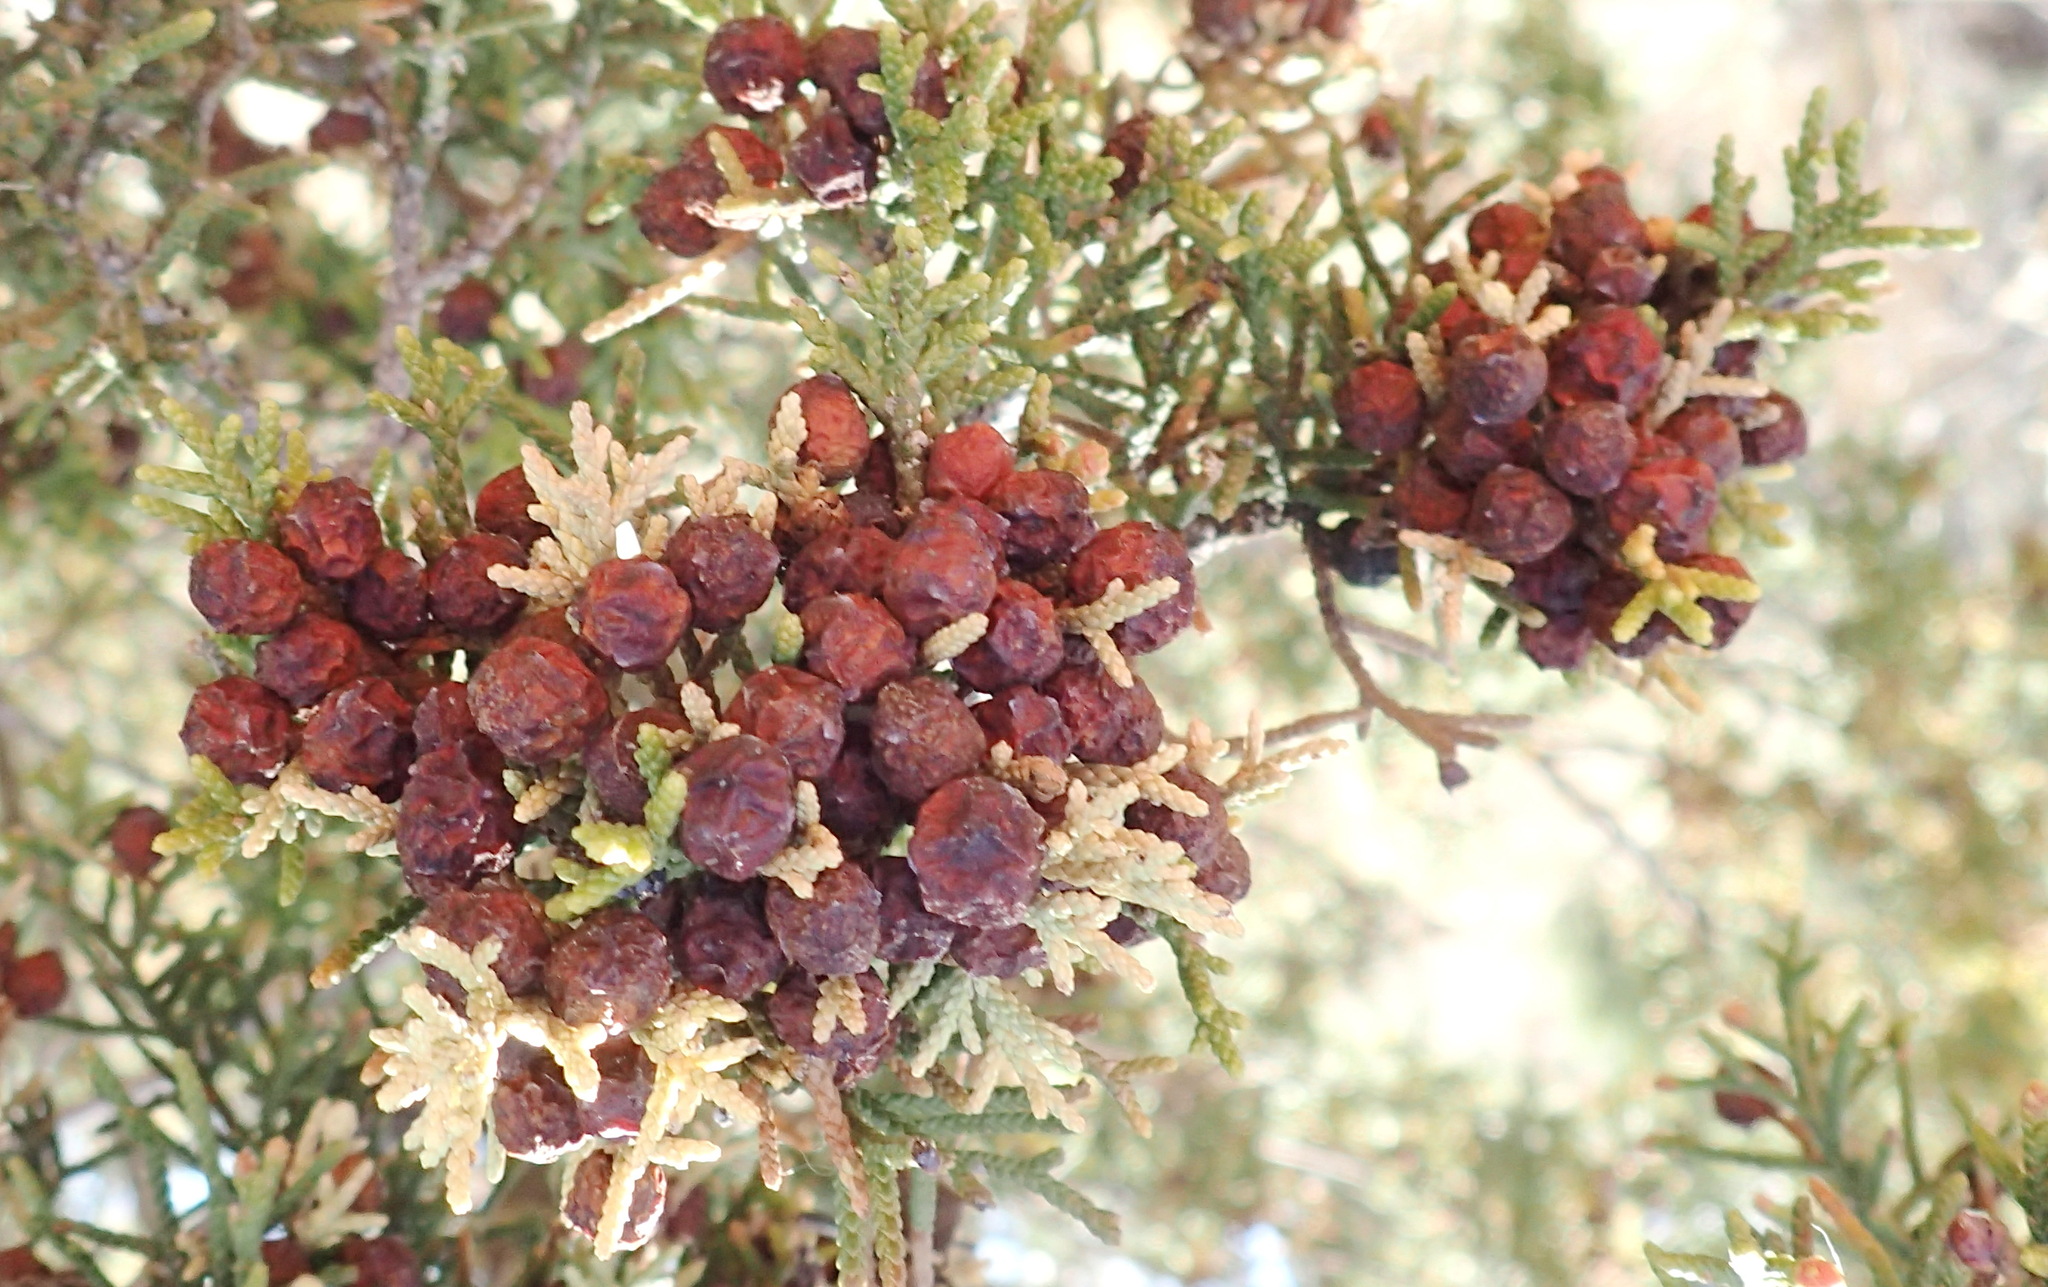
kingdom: Plantae
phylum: Tracheophyta
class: Pinopsida
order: Pinales
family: Cupressaceae
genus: Juniperus
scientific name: Juniperus pinchotii
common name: Pinchot juniper
